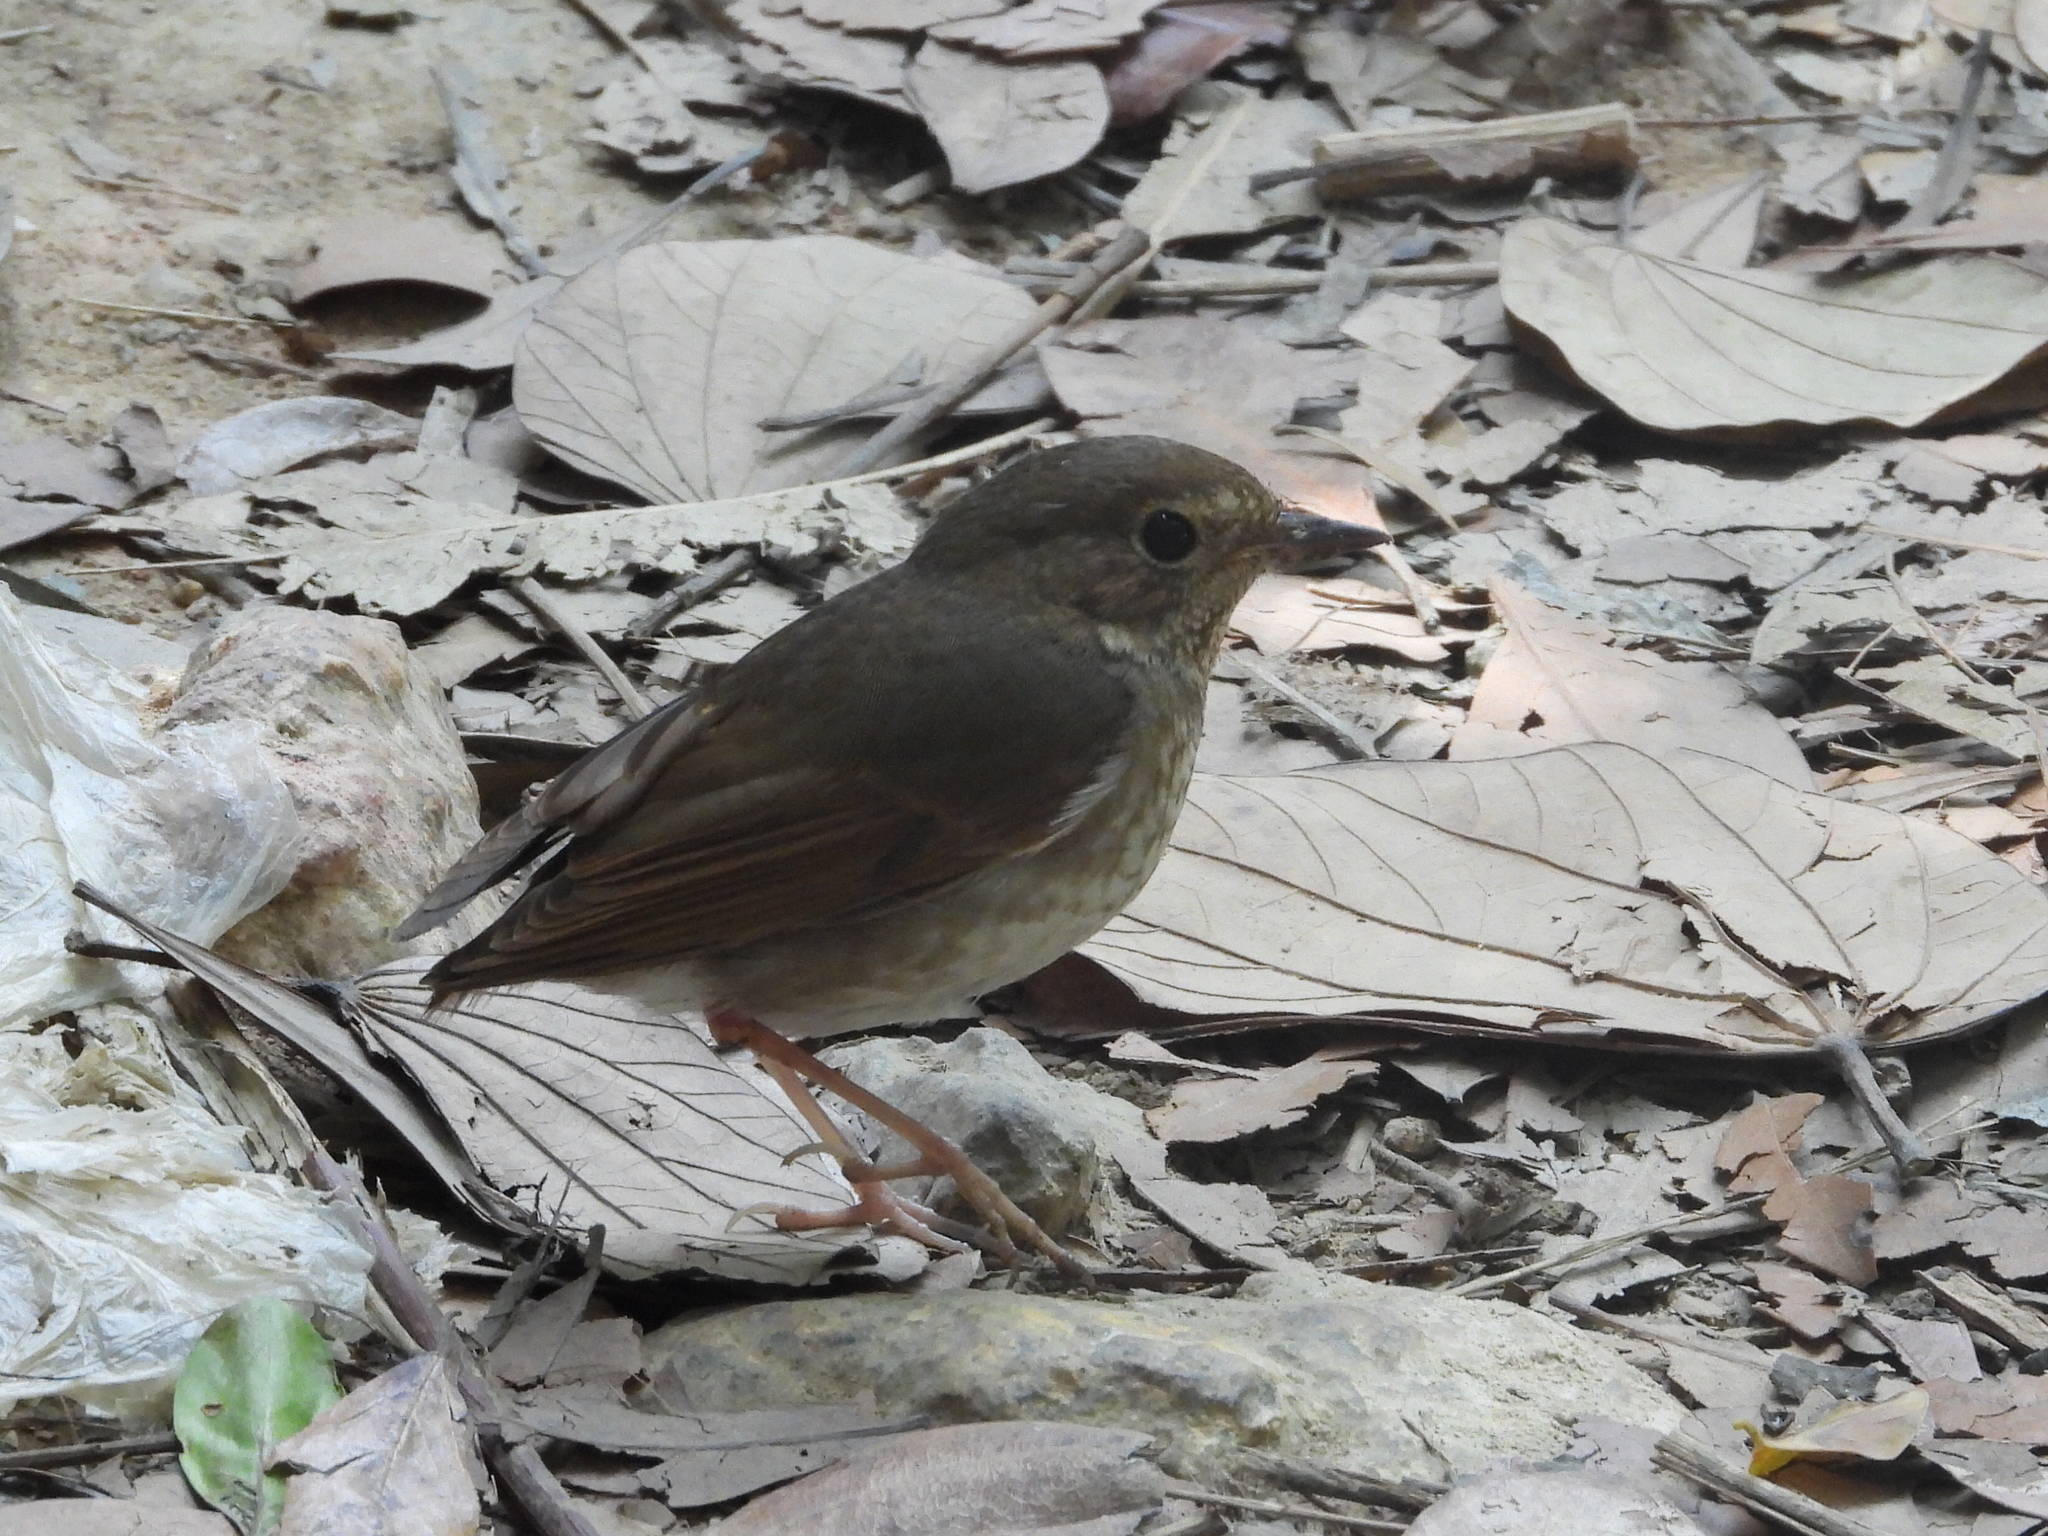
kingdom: Animalia
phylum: Chordata
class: Aves
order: Passeriformes
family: Muscicapidae
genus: Larvivora
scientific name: Larvivora sibilans
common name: Rufous-tailed robin
